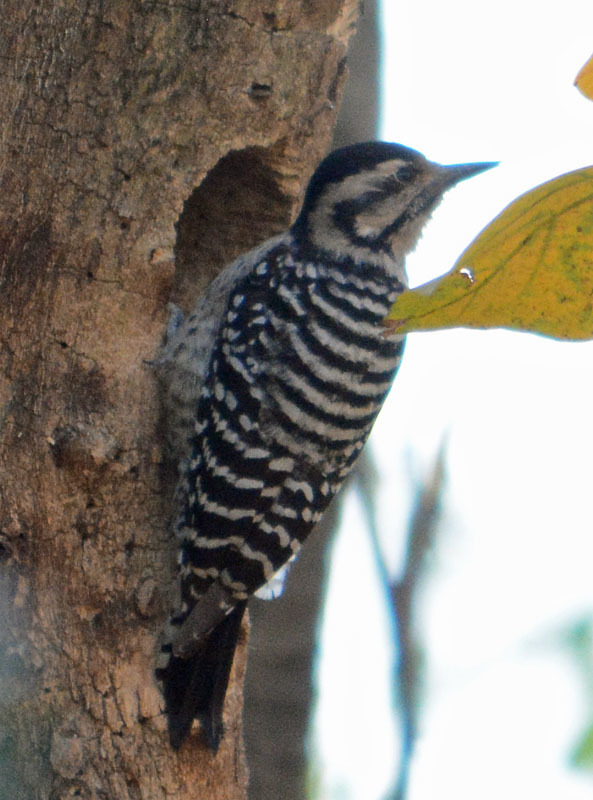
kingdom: Animalia
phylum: Chordata
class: Aves
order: Piciformes
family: Picidae
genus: Dryobates
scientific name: Dryobates scalaris
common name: Ladder-backed woodpecker
